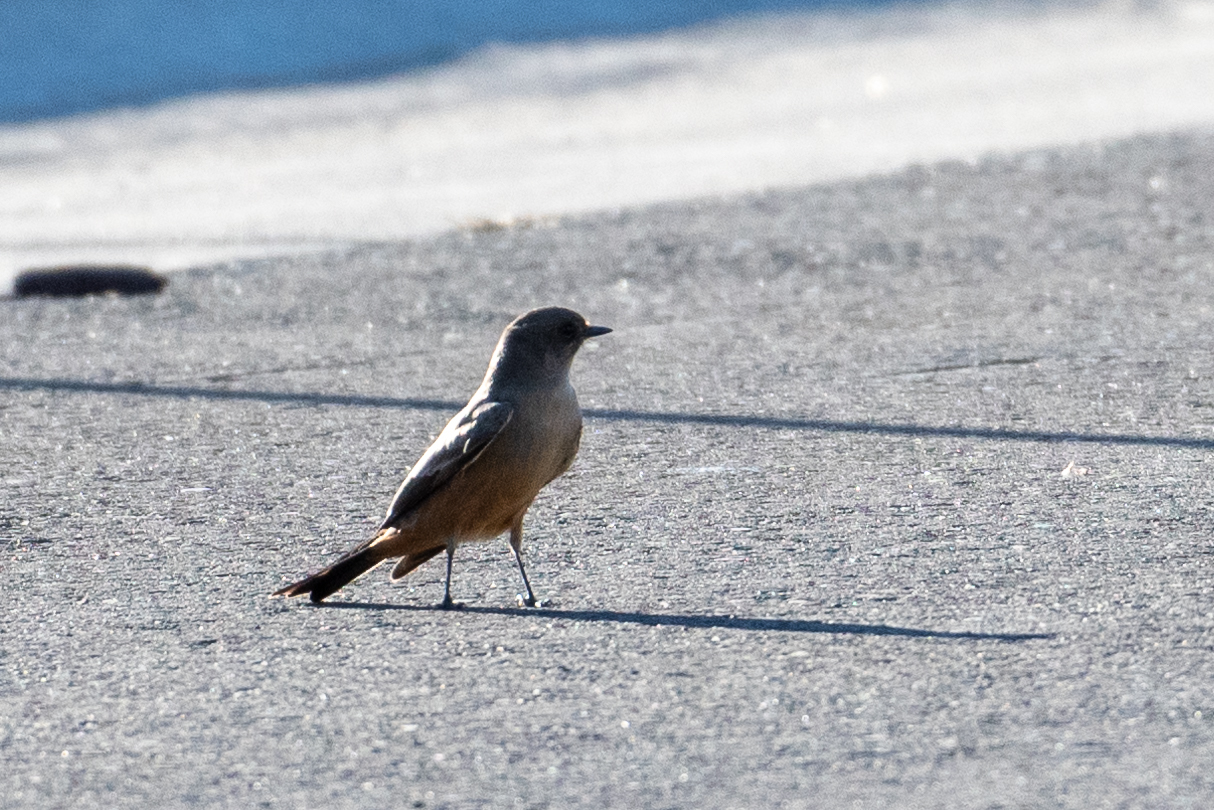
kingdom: Animalia
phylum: Chordata
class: Aves
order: Passeriformes
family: Tyrannidae
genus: Sayornis
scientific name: Sayornis saya
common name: Say's phoebe
